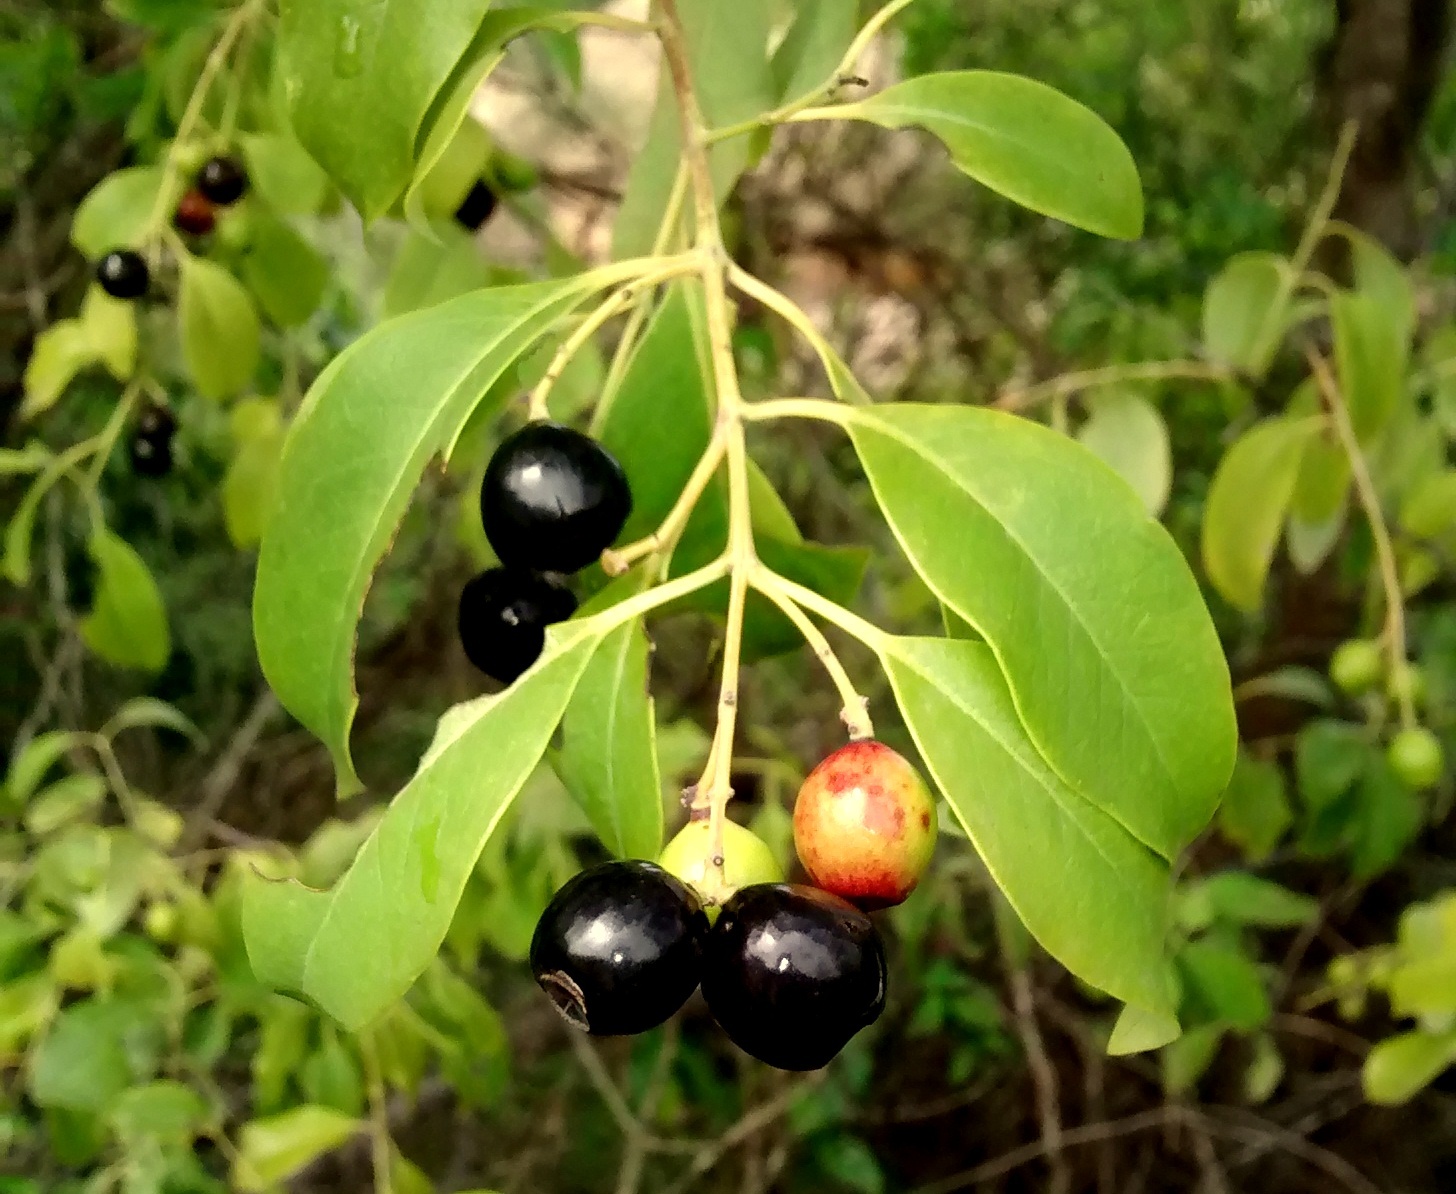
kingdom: Plantae
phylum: Tracheophyta
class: Magnoliopsida
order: Santalales
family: Santalaceae
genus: Santalum
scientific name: Santalum album
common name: Indian sandalwood
